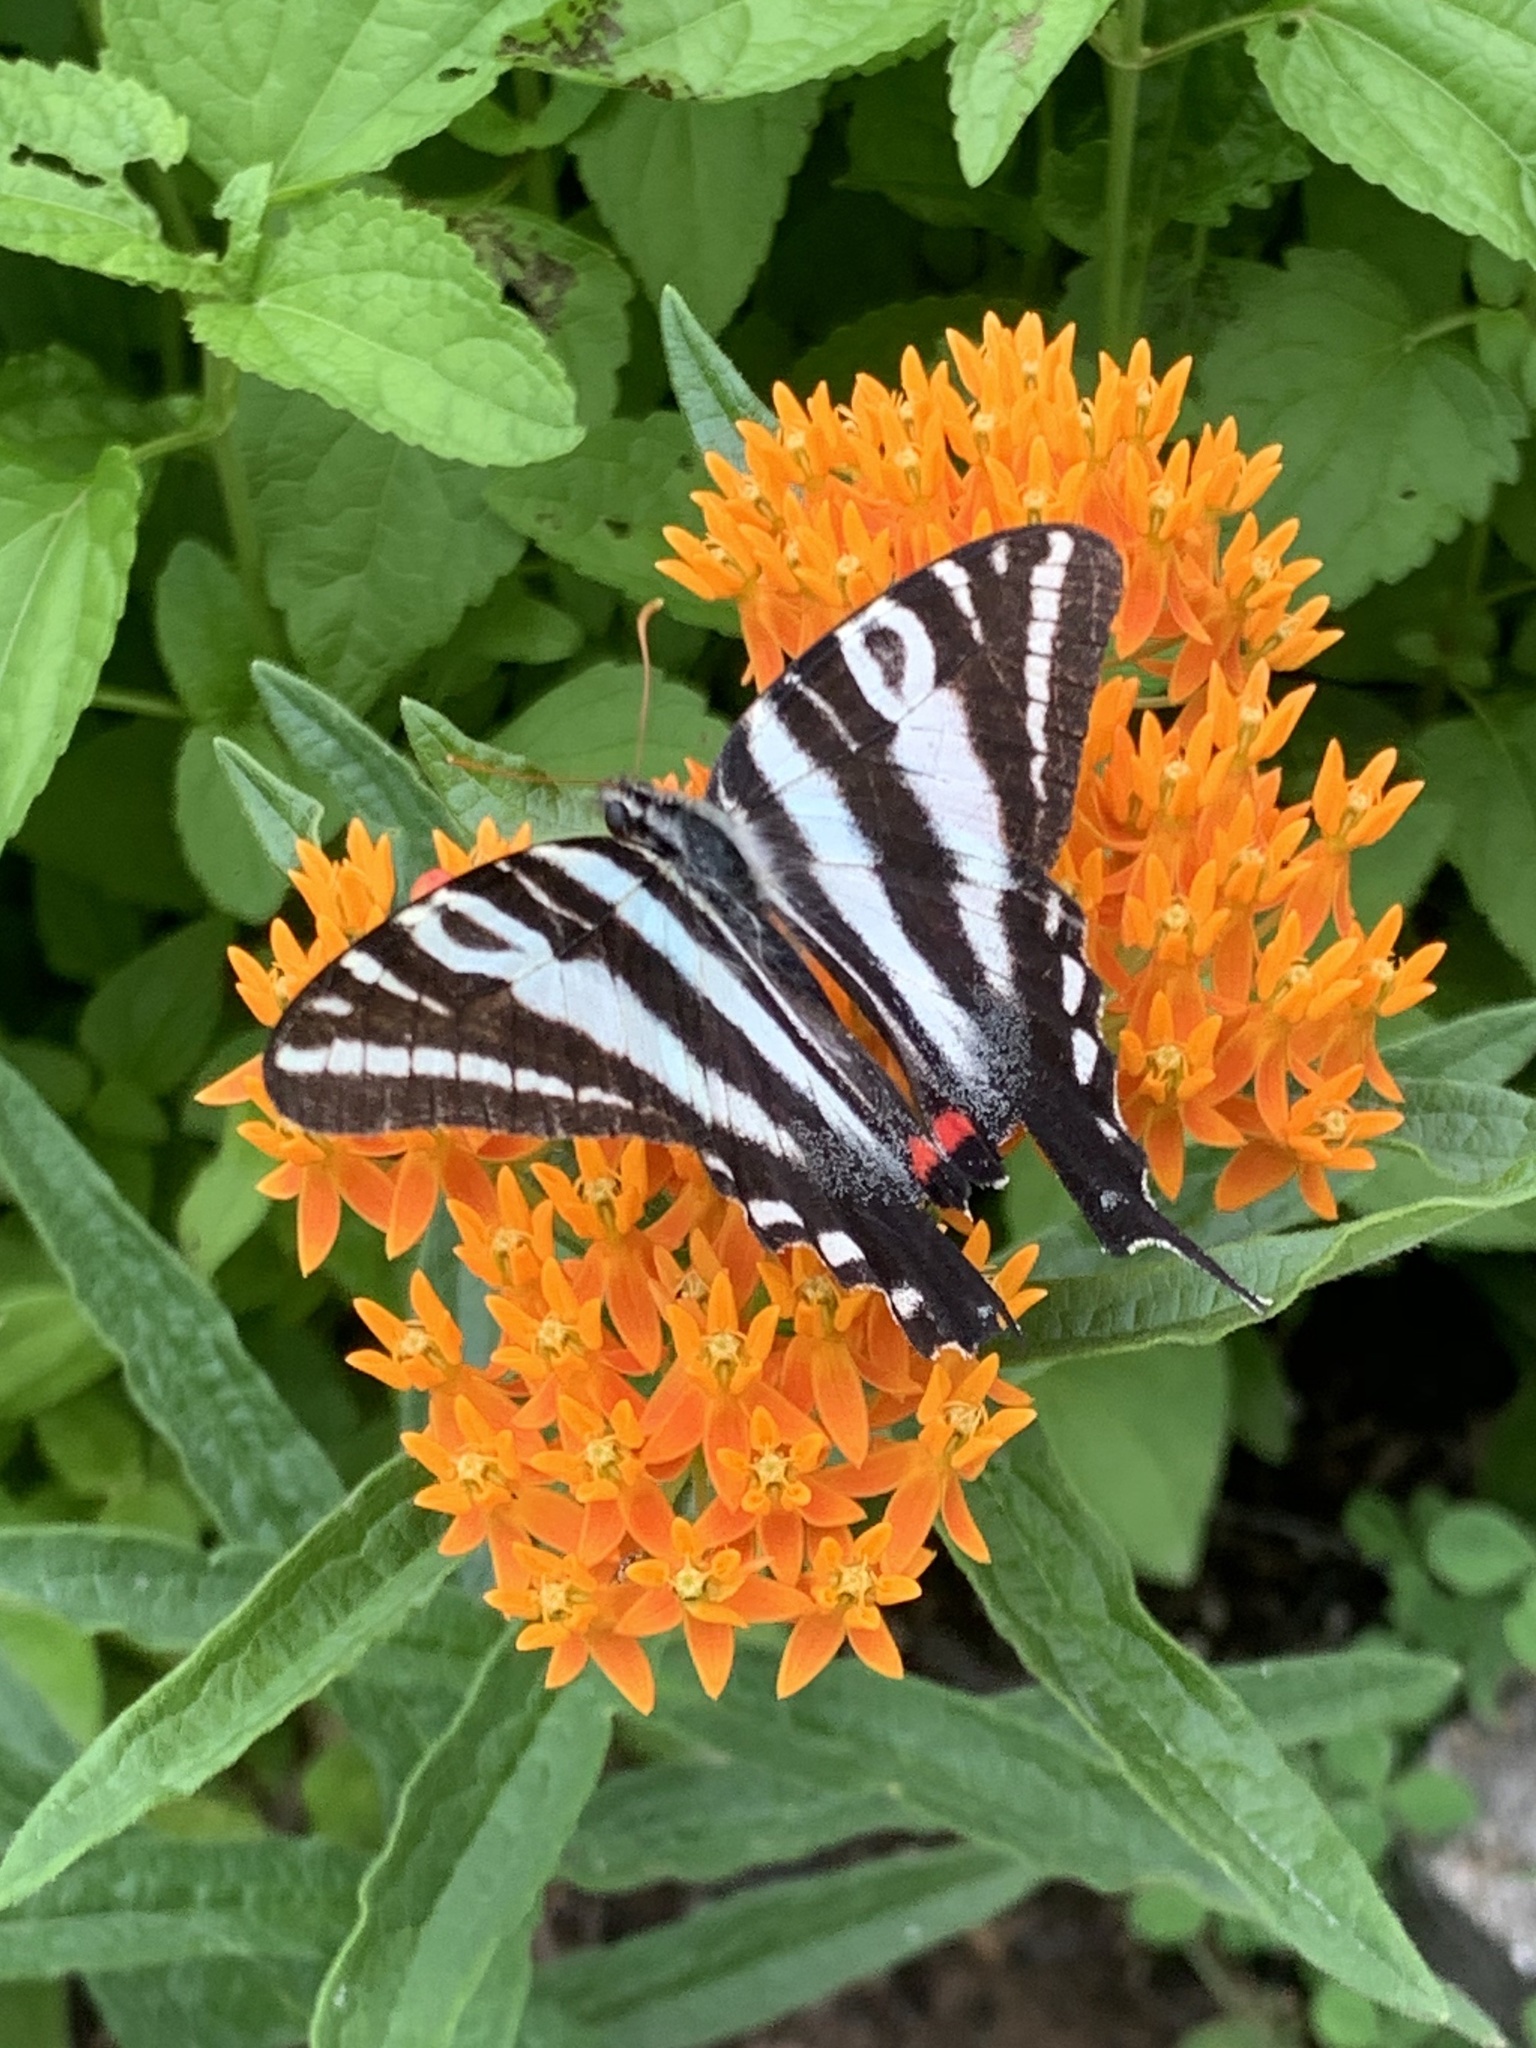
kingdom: Animalia
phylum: Arthropoda
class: Insecta
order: Lepidoptera
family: Papilionidae
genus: Protographium
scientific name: Protographium marcellus
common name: Zebra swallowtail
